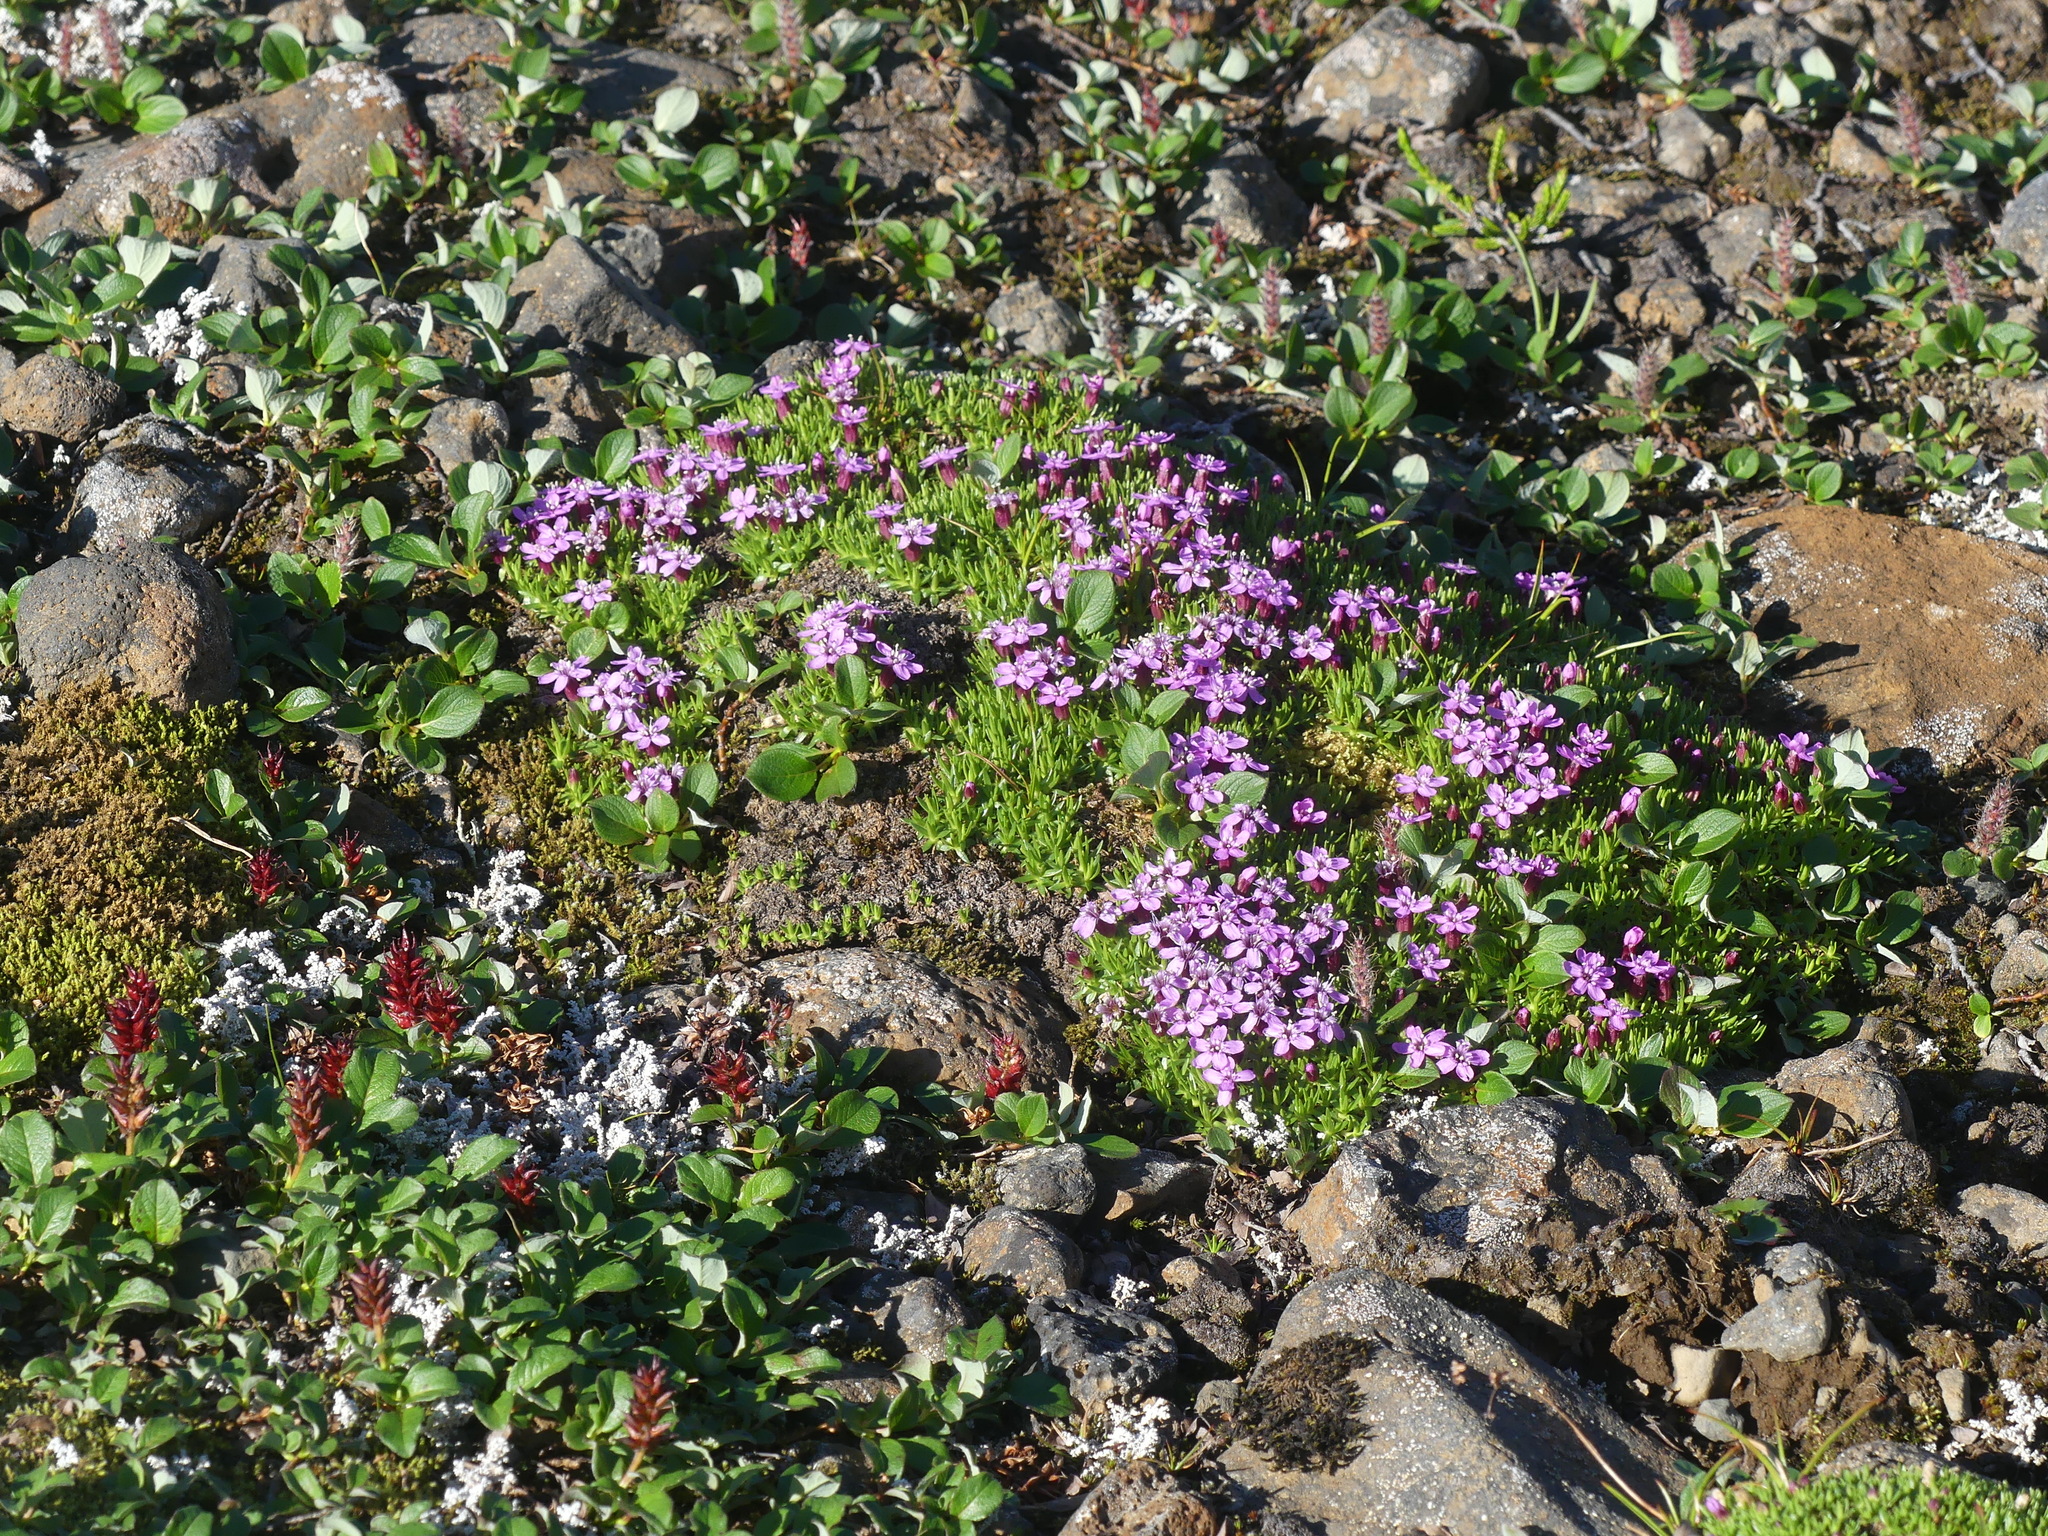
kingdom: Plantae
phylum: Tracheophyta
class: Magnoliopsida
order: Caryophyllales
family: Caryophyllaceae
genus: Silene
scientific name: Silene acaulis
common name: Moss campion
